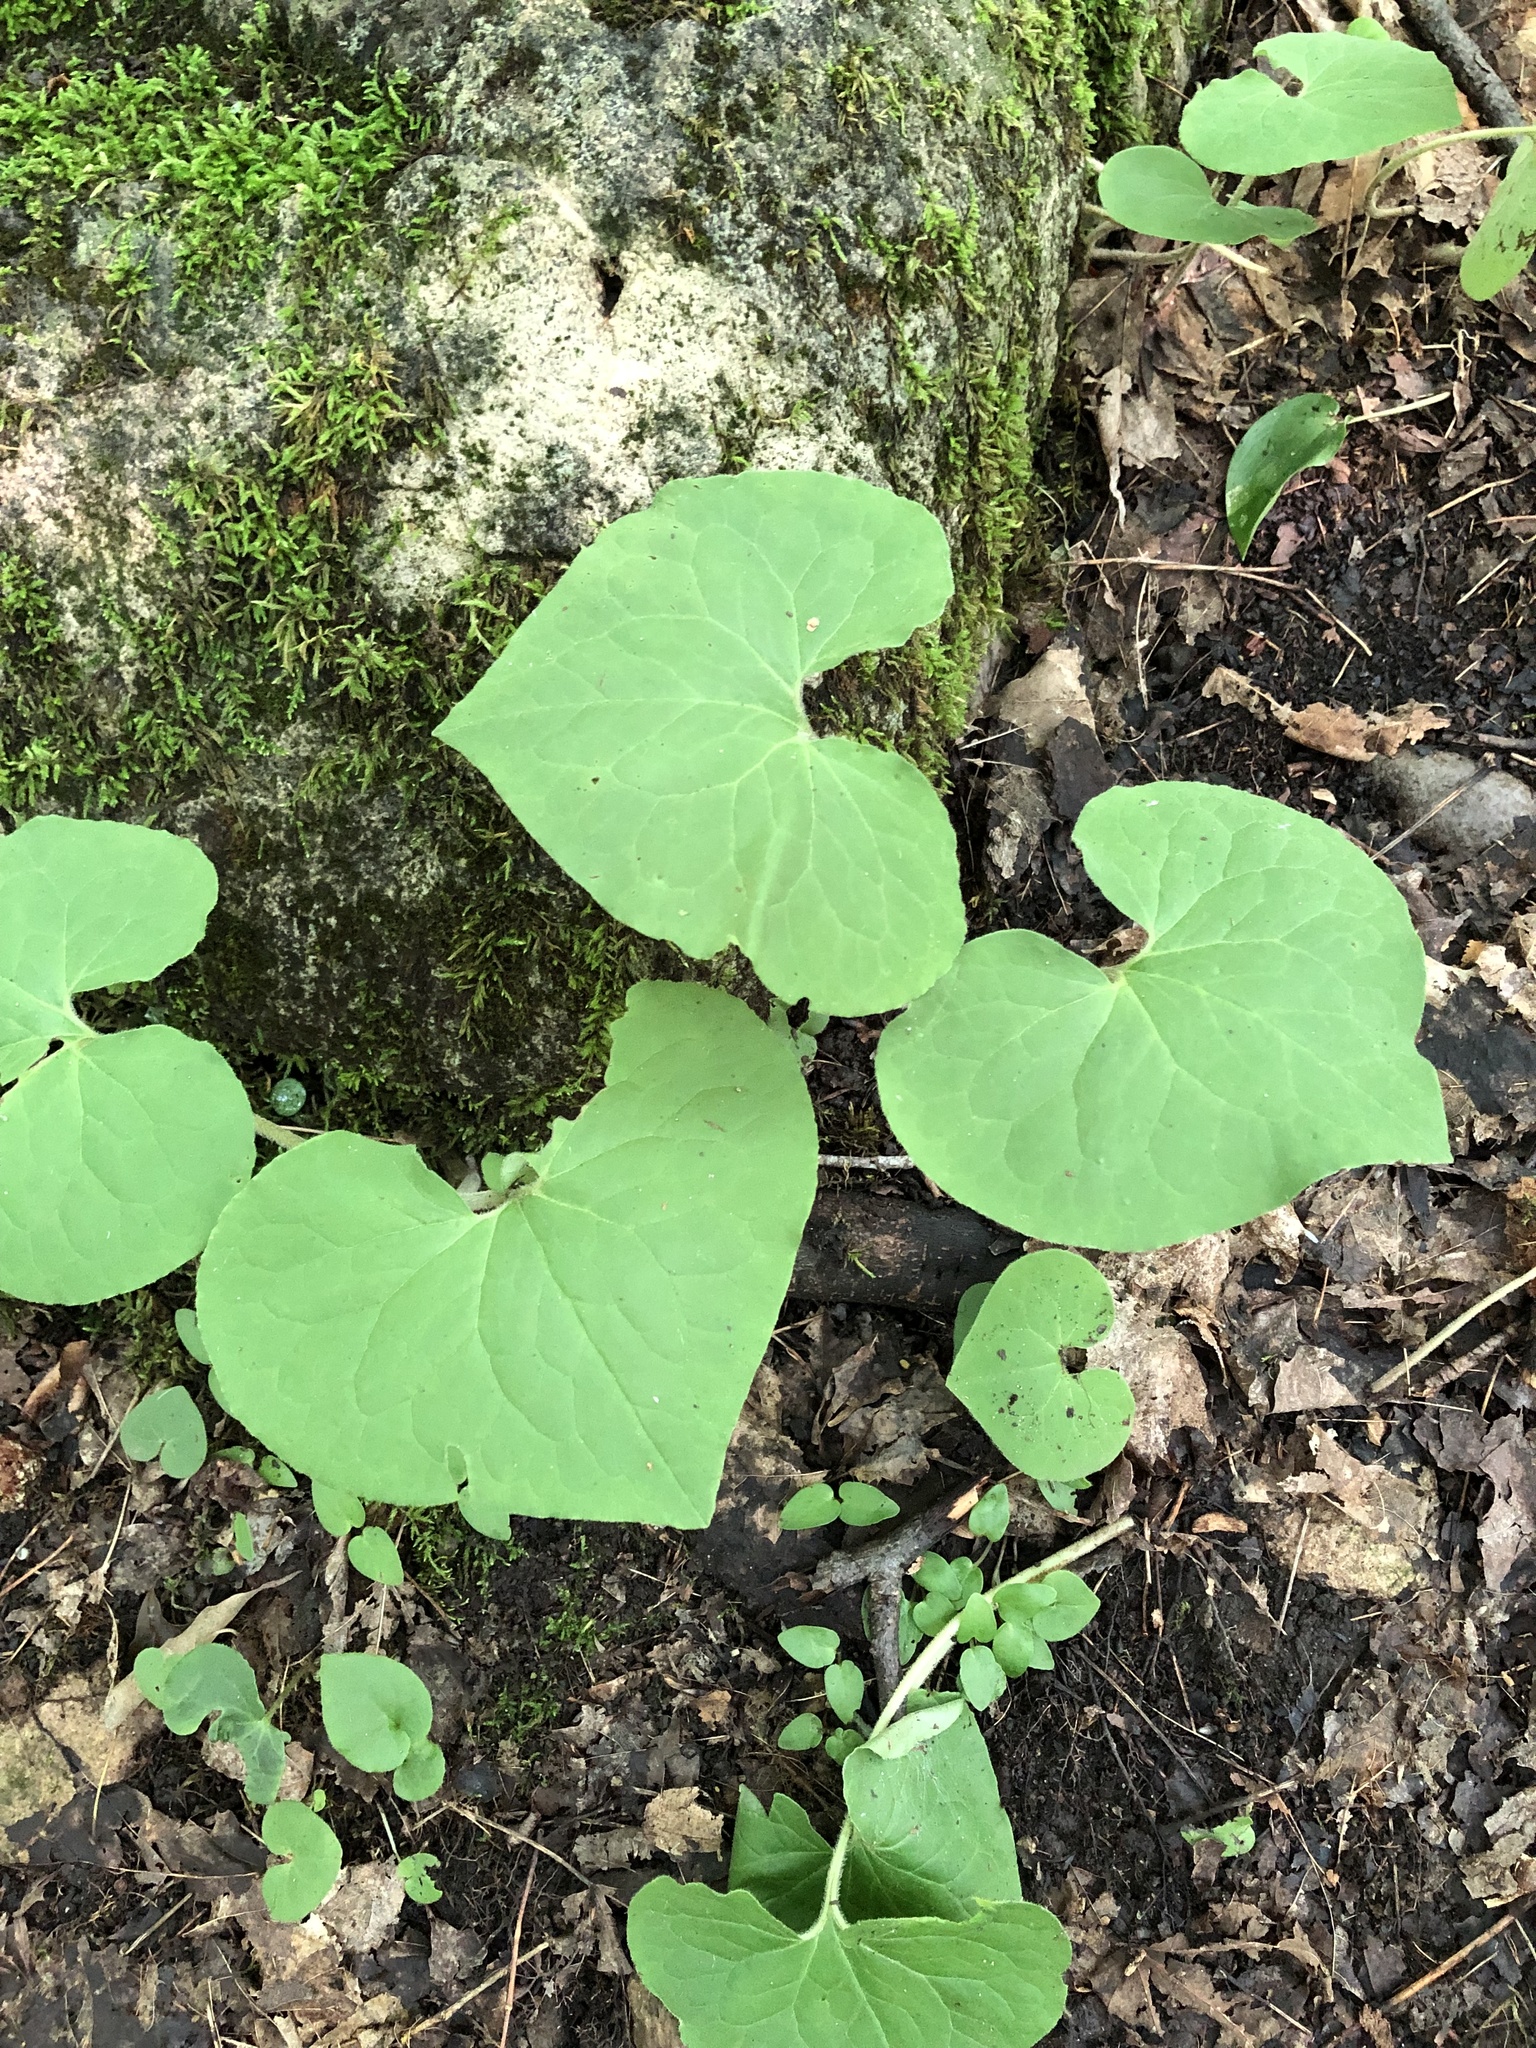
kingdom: Plantae
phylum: Tracheophyta
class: Magnoliopsida
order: Piperales
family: Aristolochiaceae
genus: Asarum
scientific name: Asarum canadense
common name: Wild ginger
